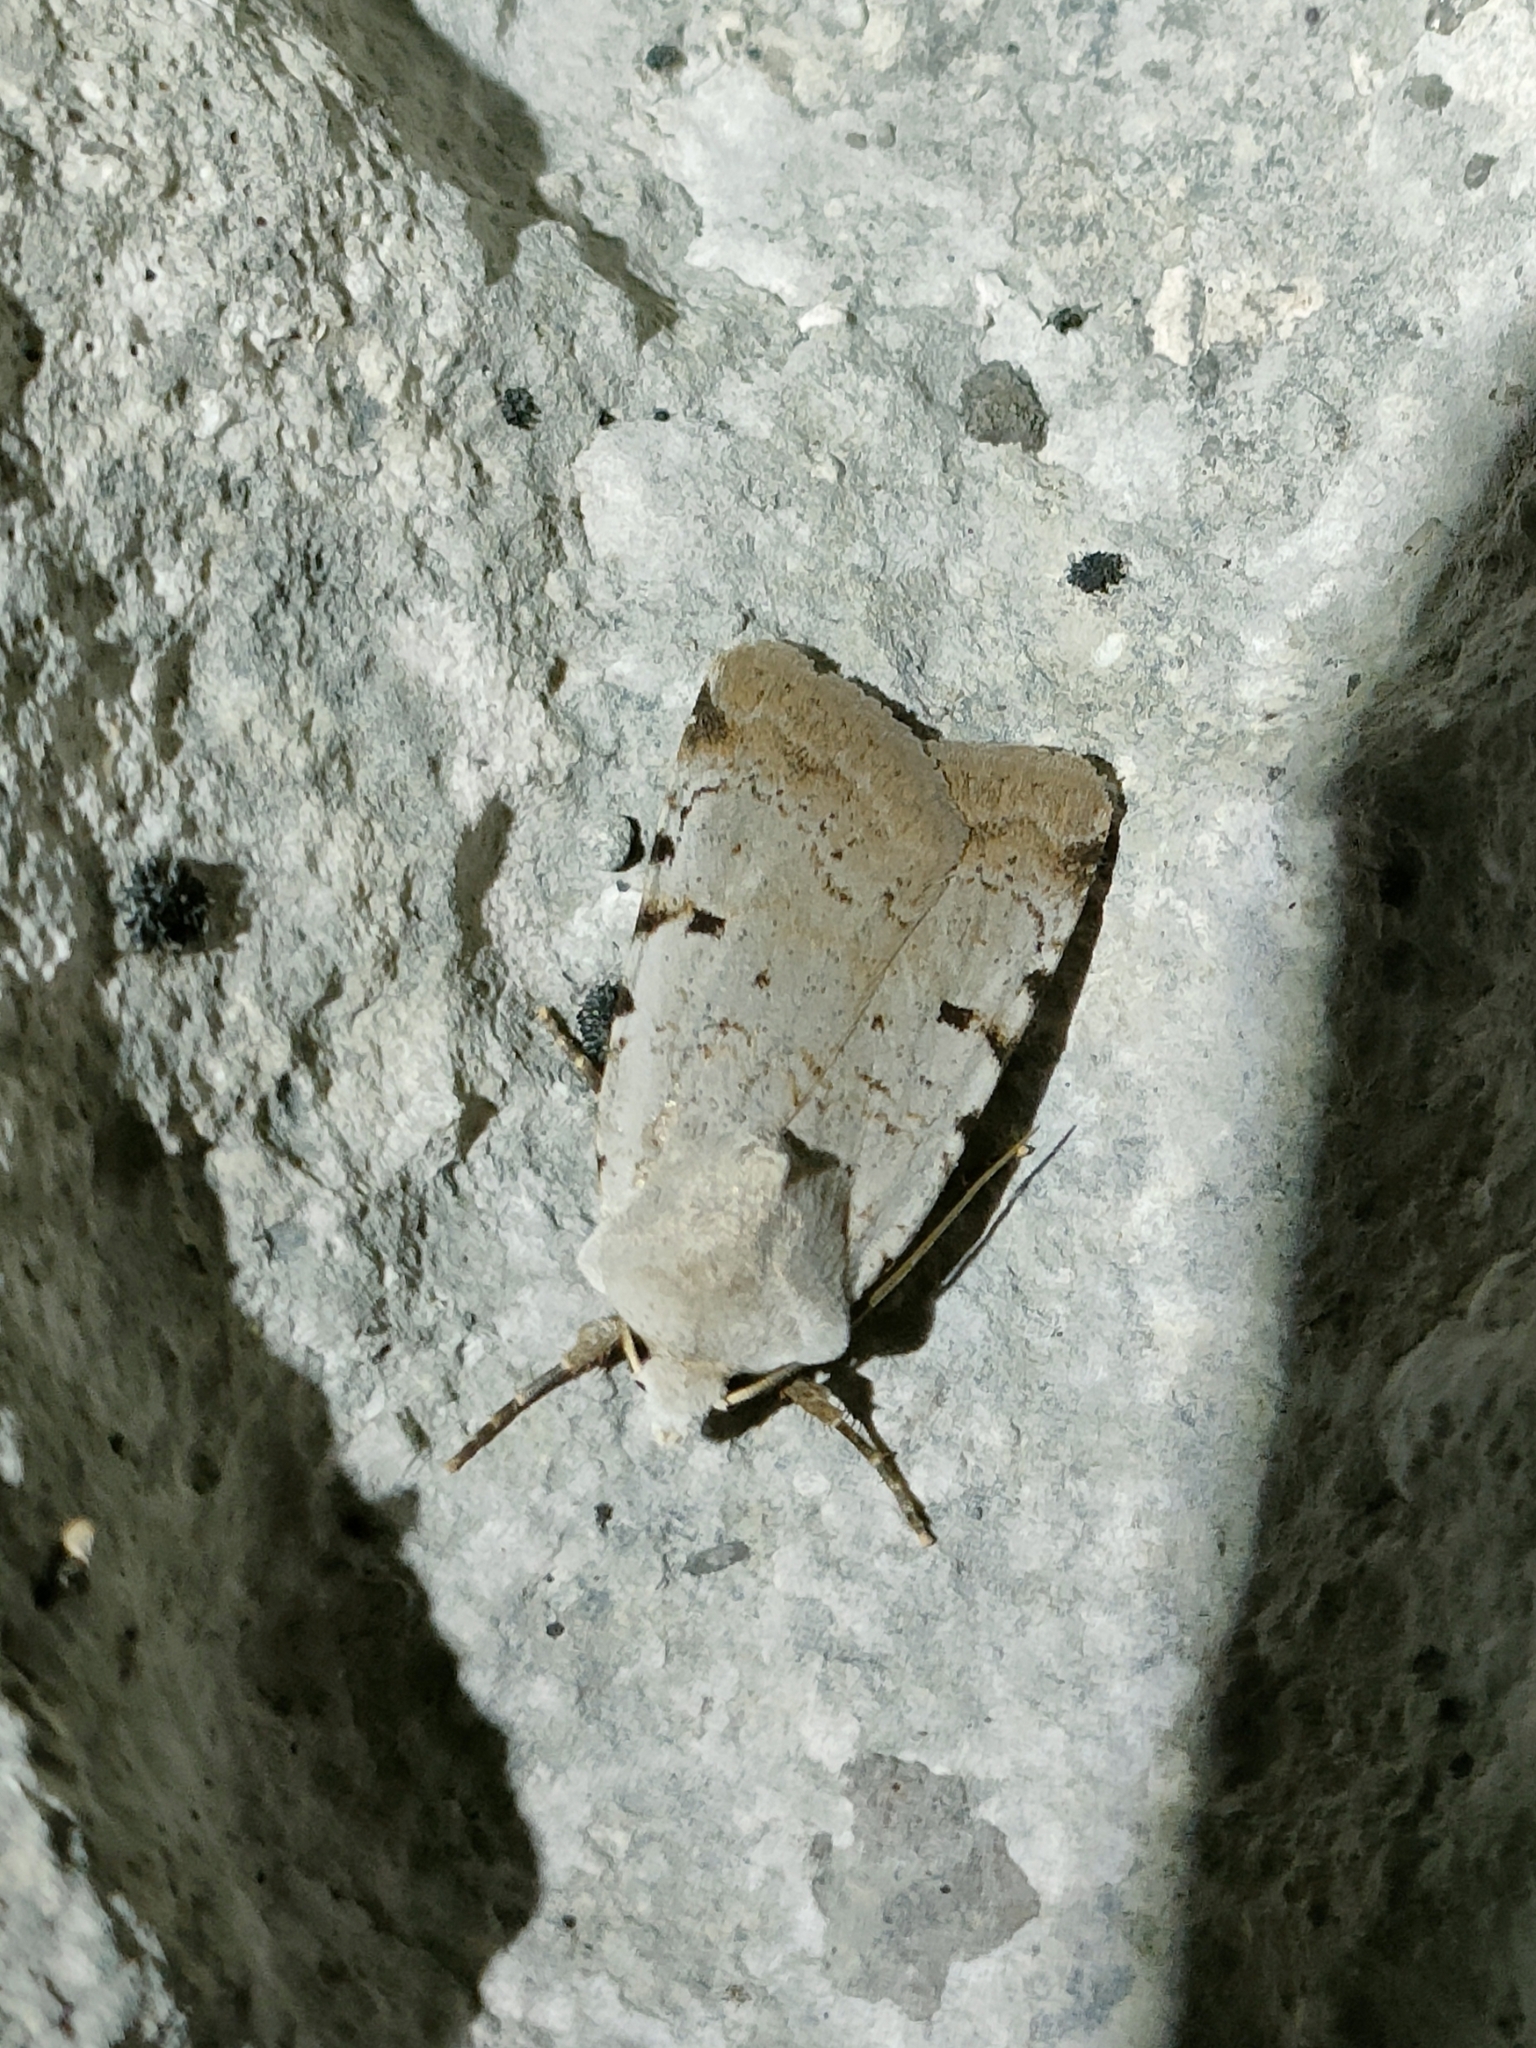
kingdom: Animalia
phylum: Arthropoda
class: Insecta
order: Lepidoptera
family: Noctuidae
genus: Chersotis
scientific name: Chersotis margaritacea
